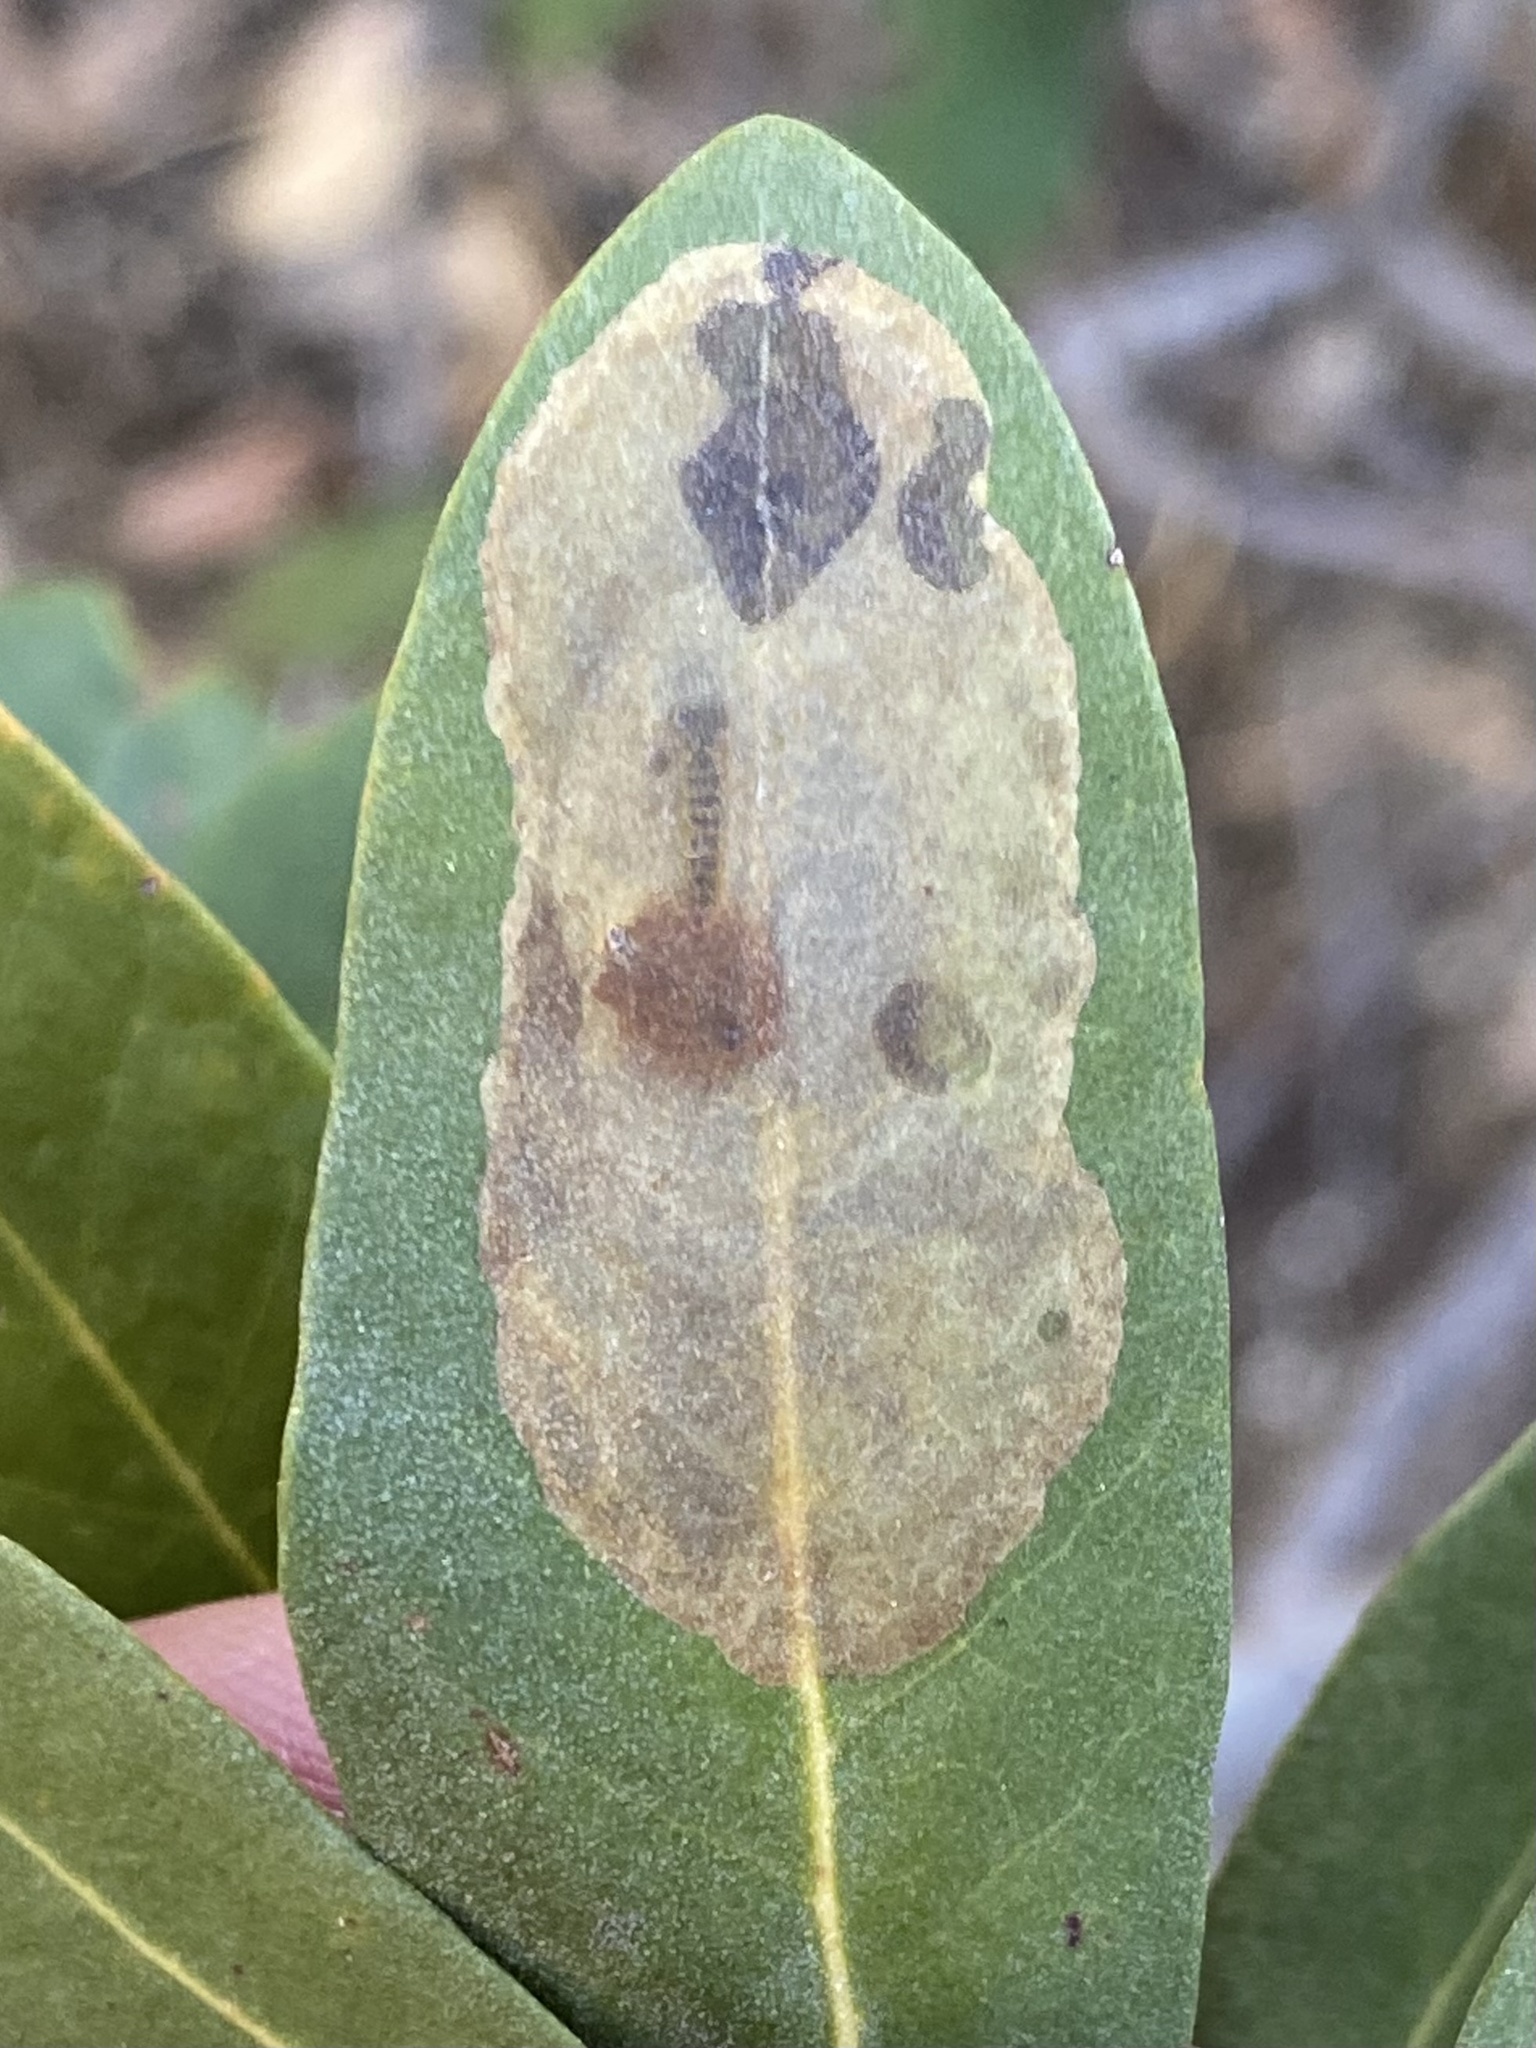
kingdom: Animalia
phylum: Arthropoda
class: Insecta
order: Lepidoptera
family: Gracillariidae
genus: Cameraria
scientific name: Cameraria sempervirensella
